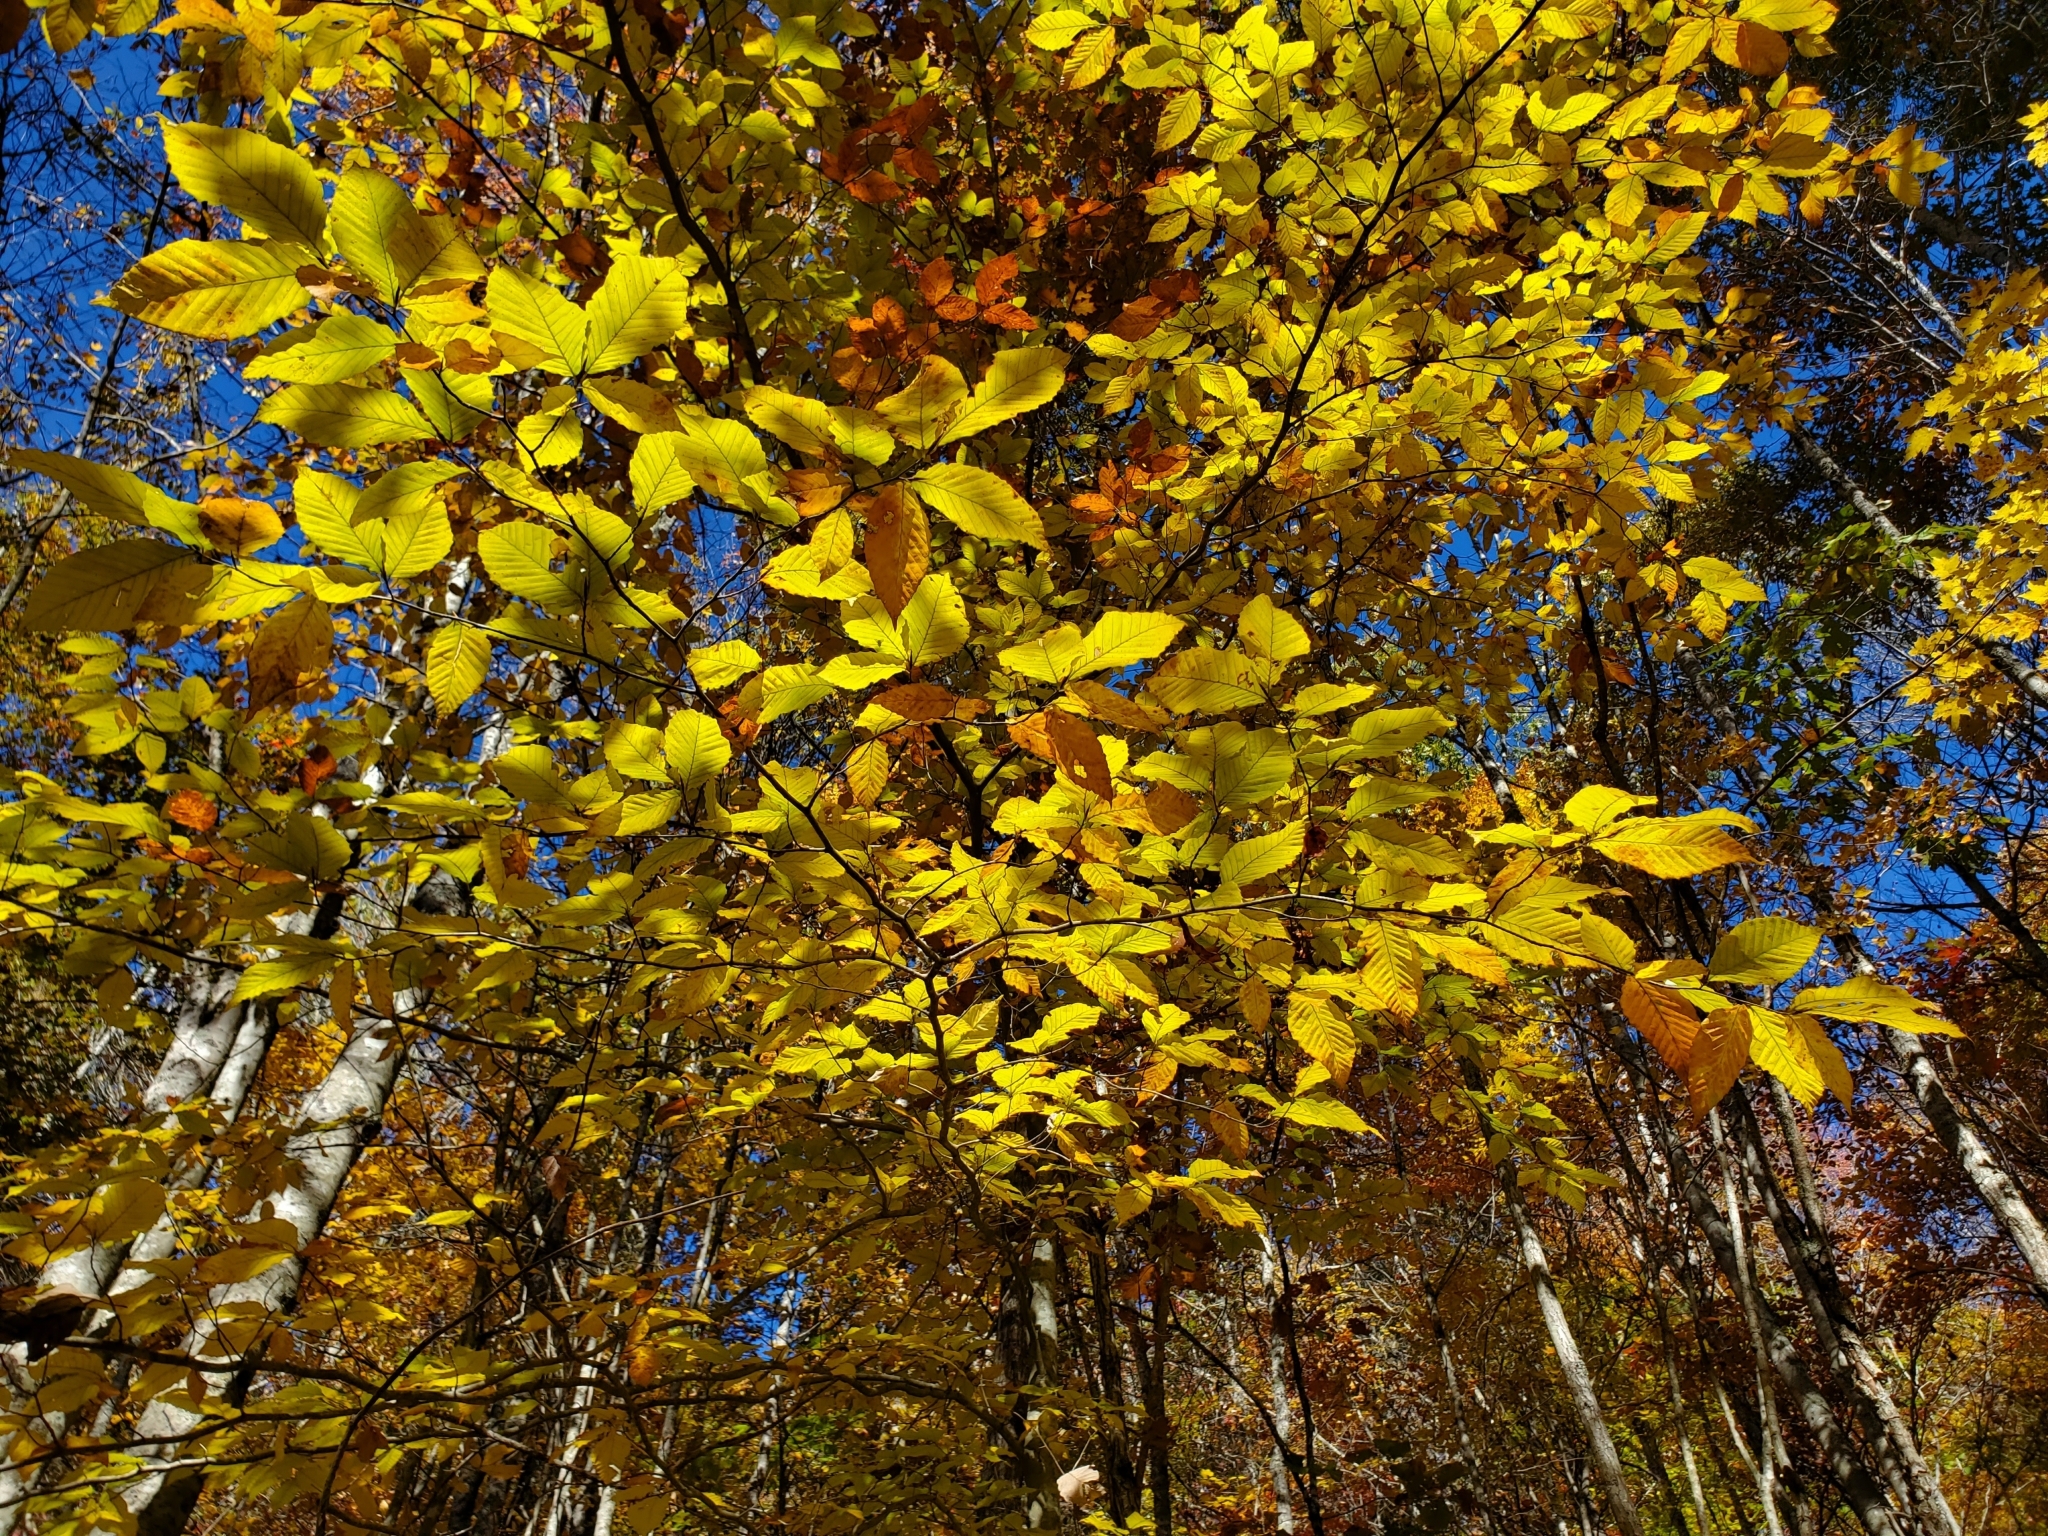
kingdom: Plantae
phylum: Tracheophyta
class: Magnoliopsida
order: Fagales
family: Fagaceae
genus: Fagus
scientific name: Fagus grandifolia
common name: American beech
